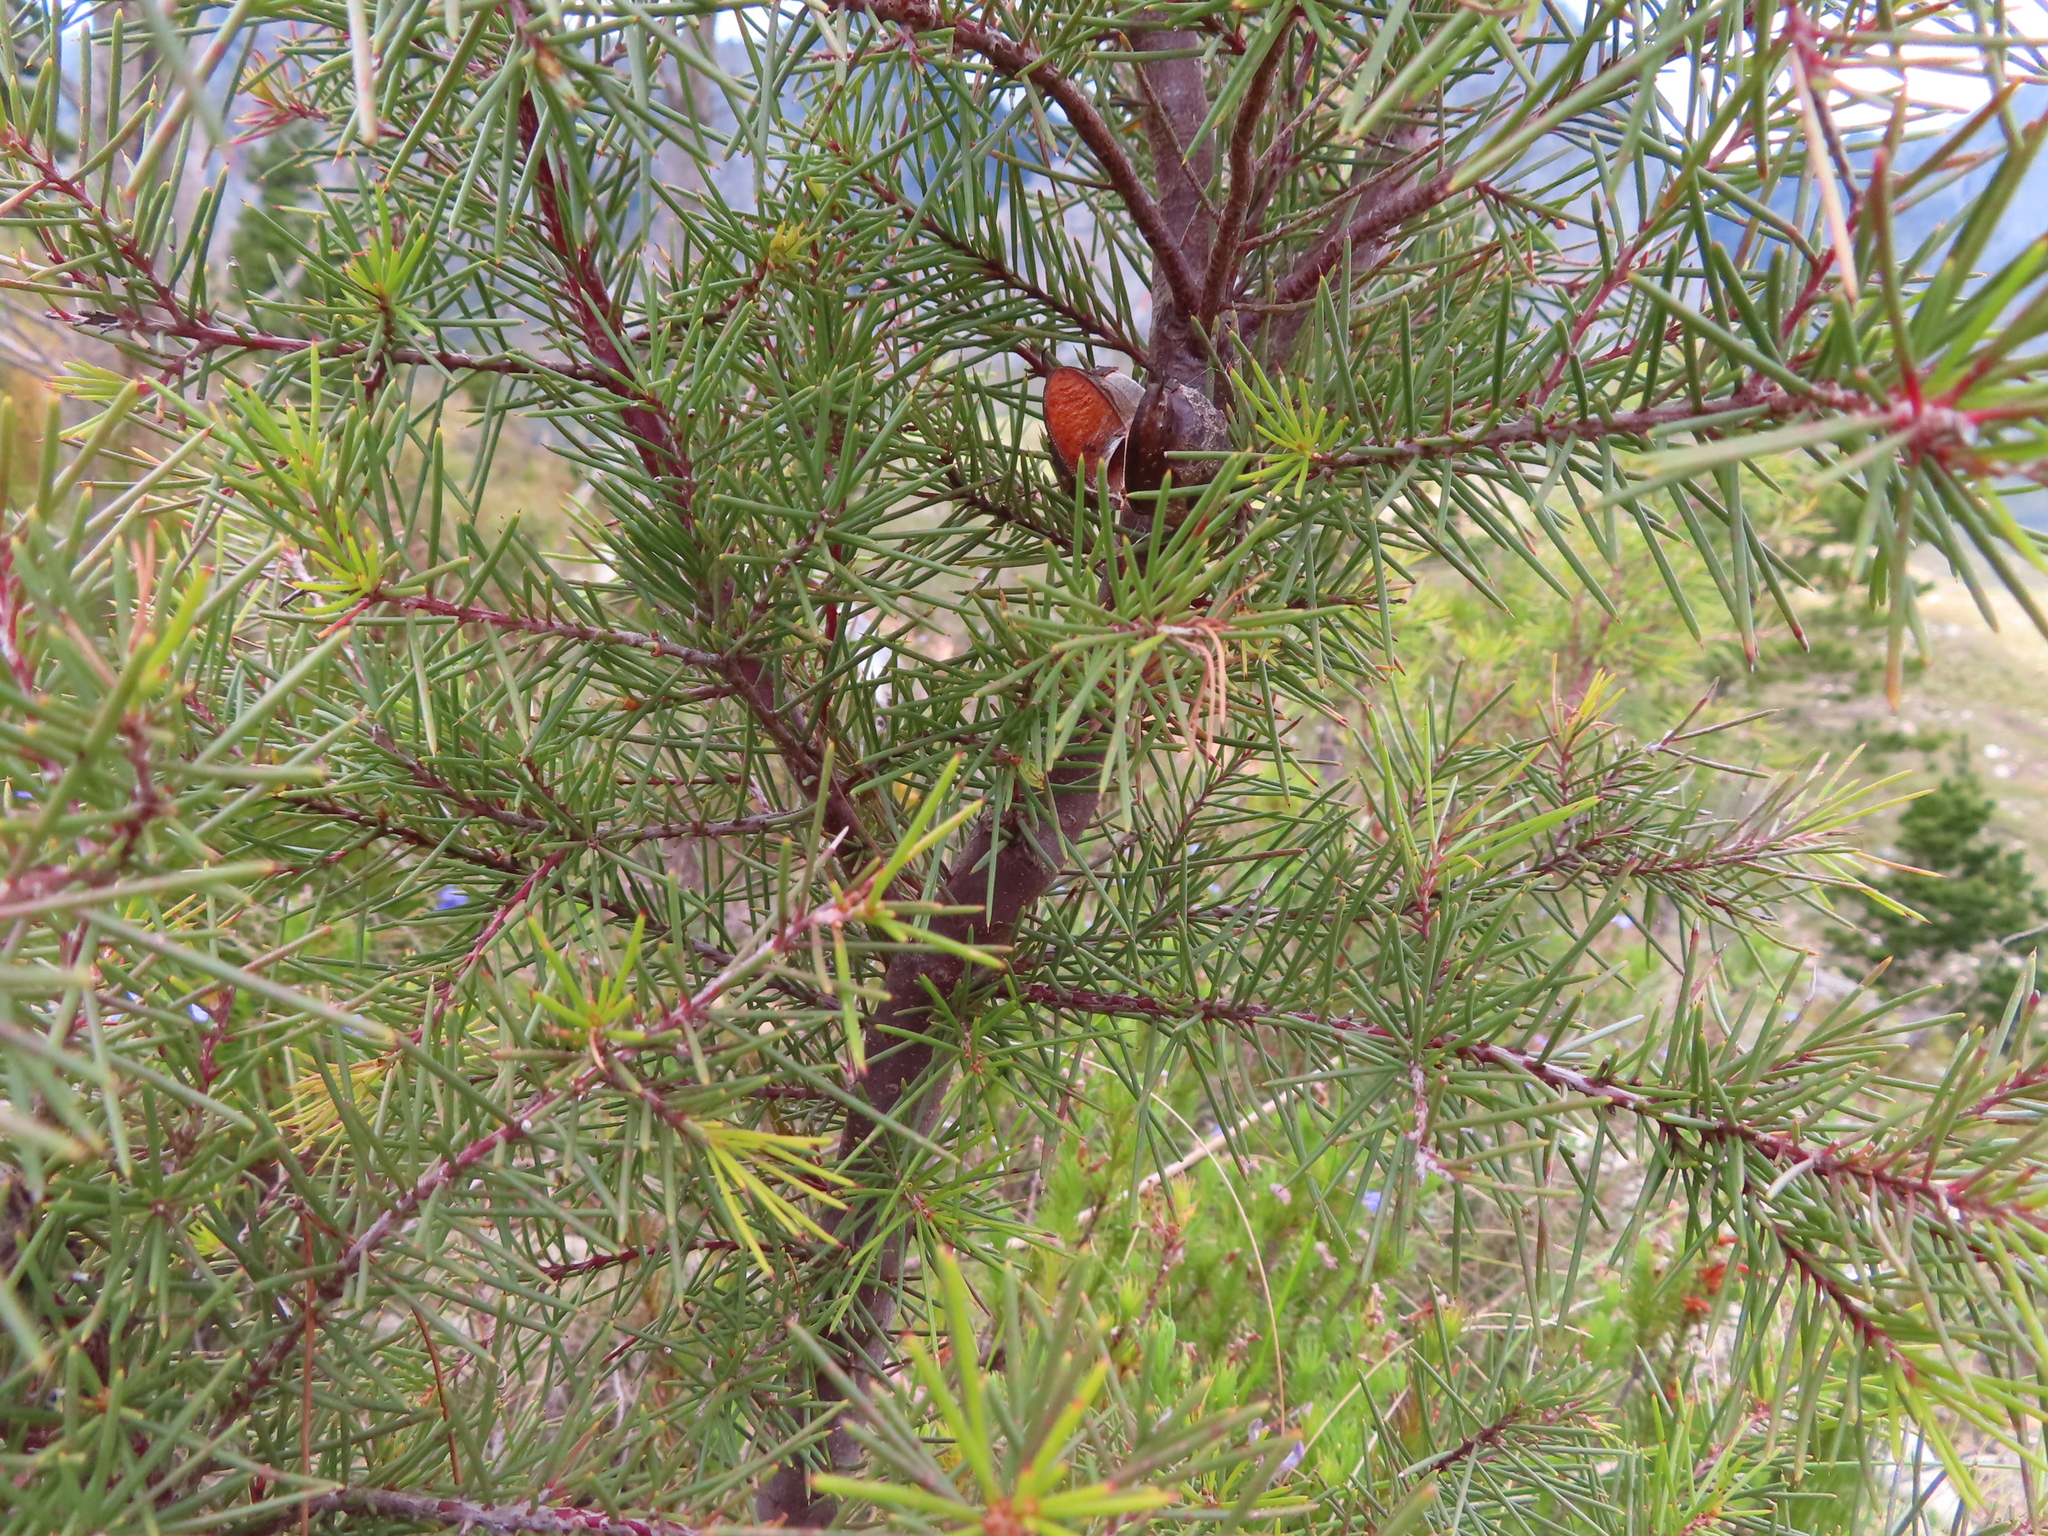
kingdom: Plantae
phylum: Tracheophyta
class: Magnoliopsida
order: Proteales
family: Proteaceae
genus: Hakea
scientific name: Hakea sericea
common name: Needle bush
